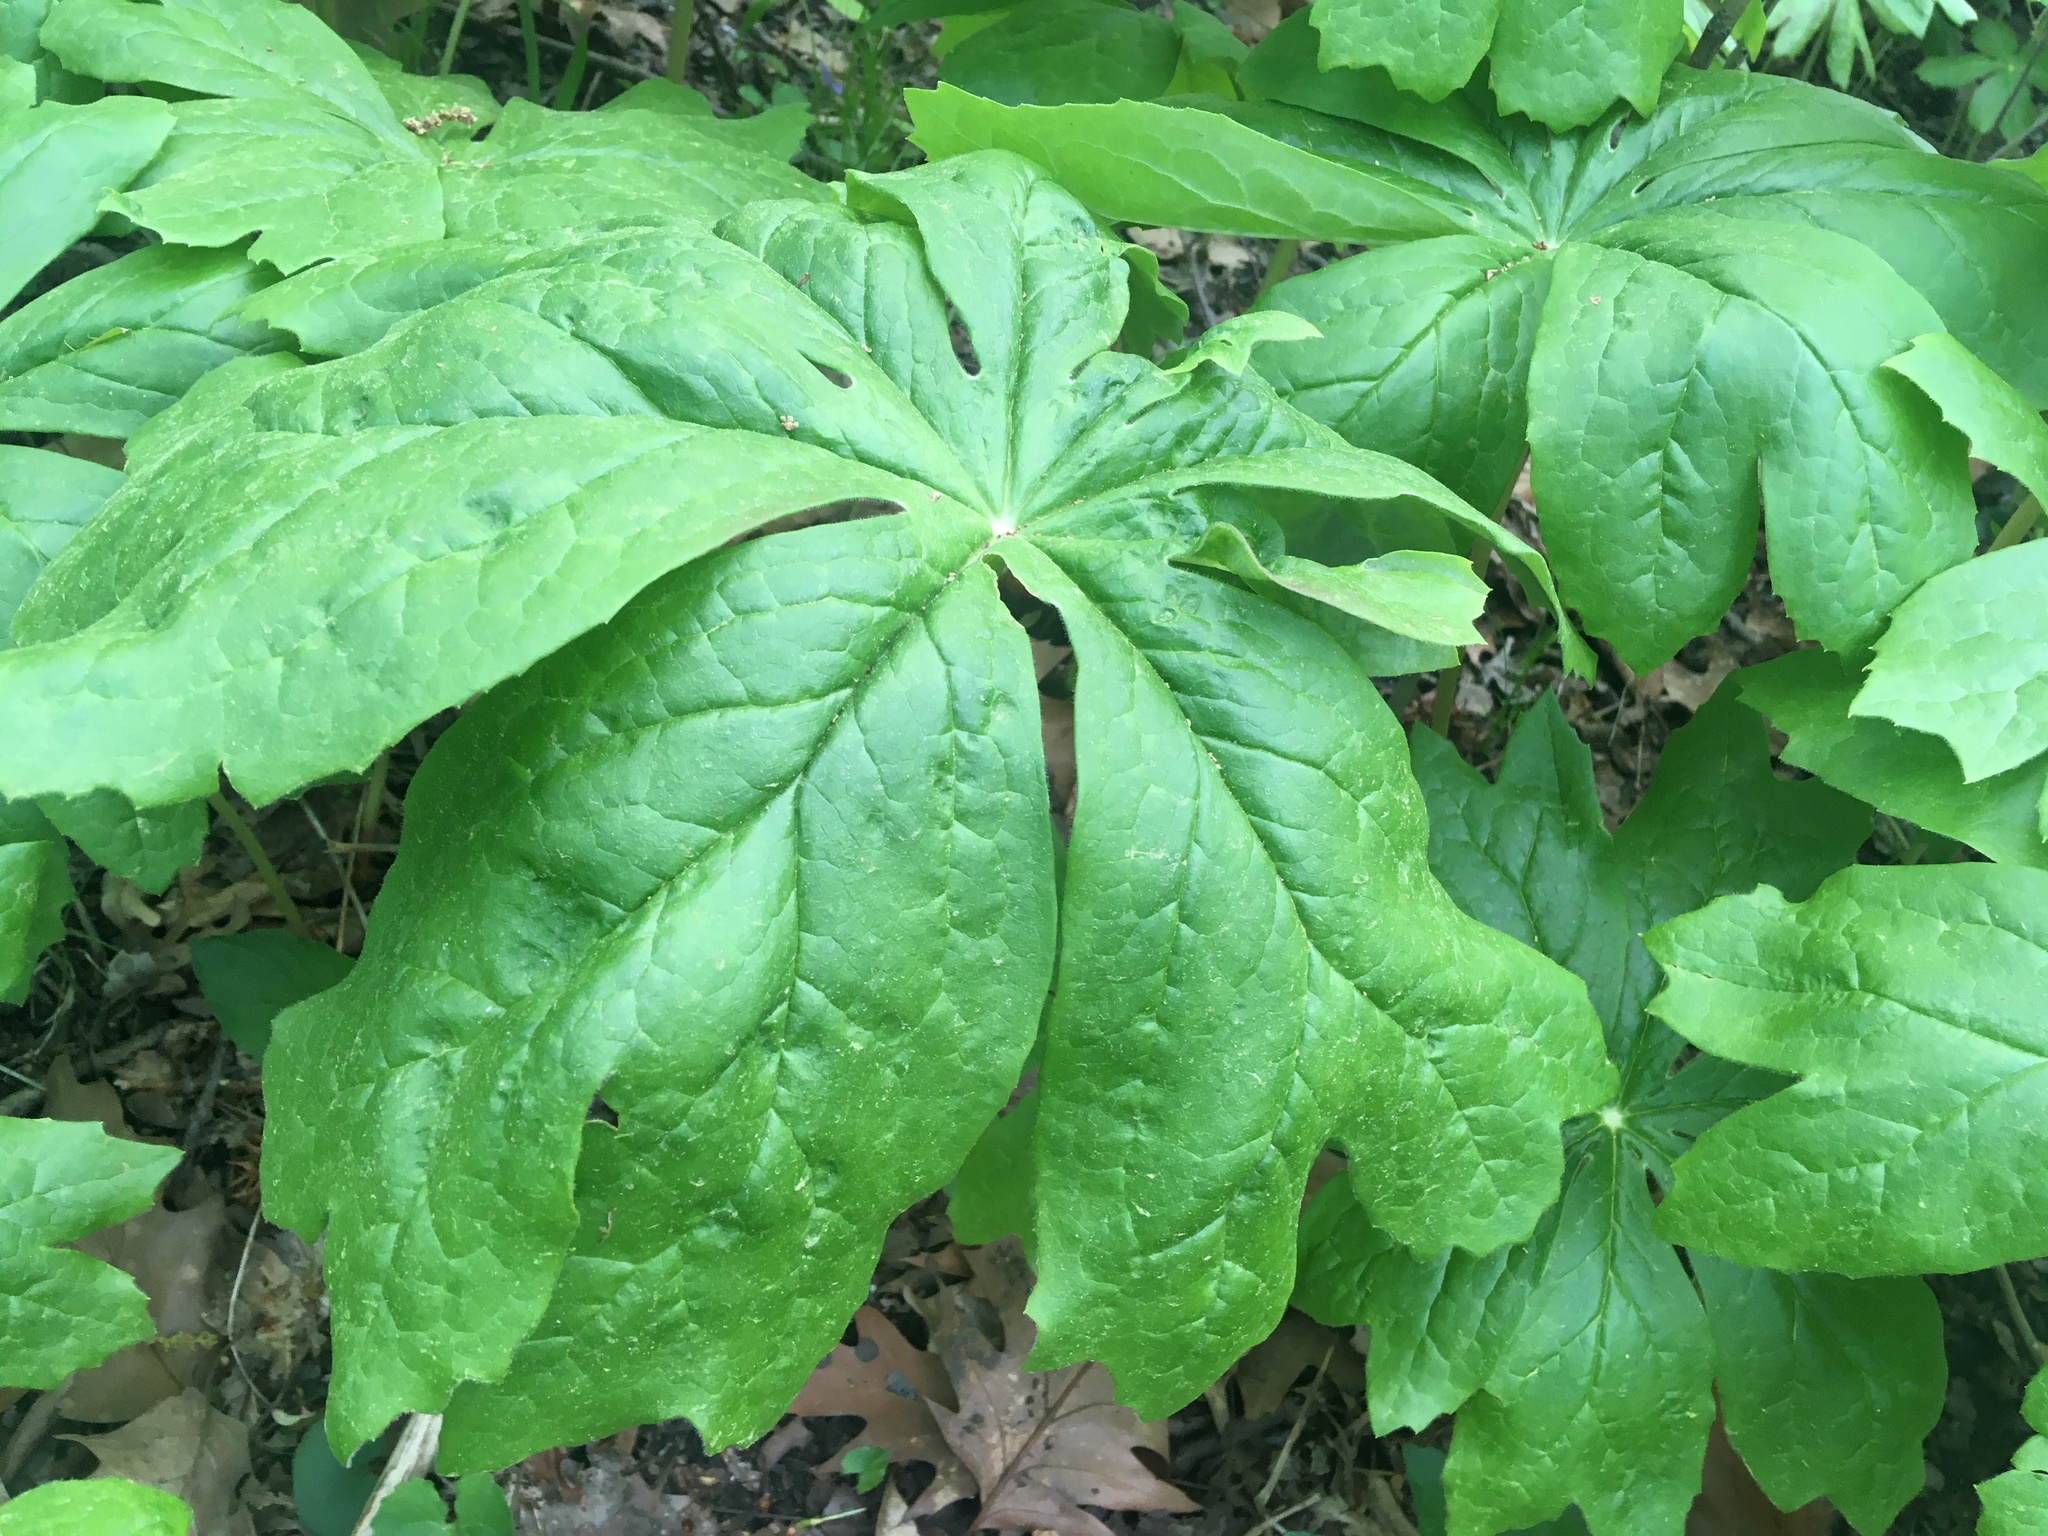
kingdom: Plantae
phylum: Tracheophyta
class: Magnoliopsida
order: Ranunculales
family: Berberidaceae
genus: Podophyllum
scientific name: Podophyllum peltatum
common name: Wild mandrake
